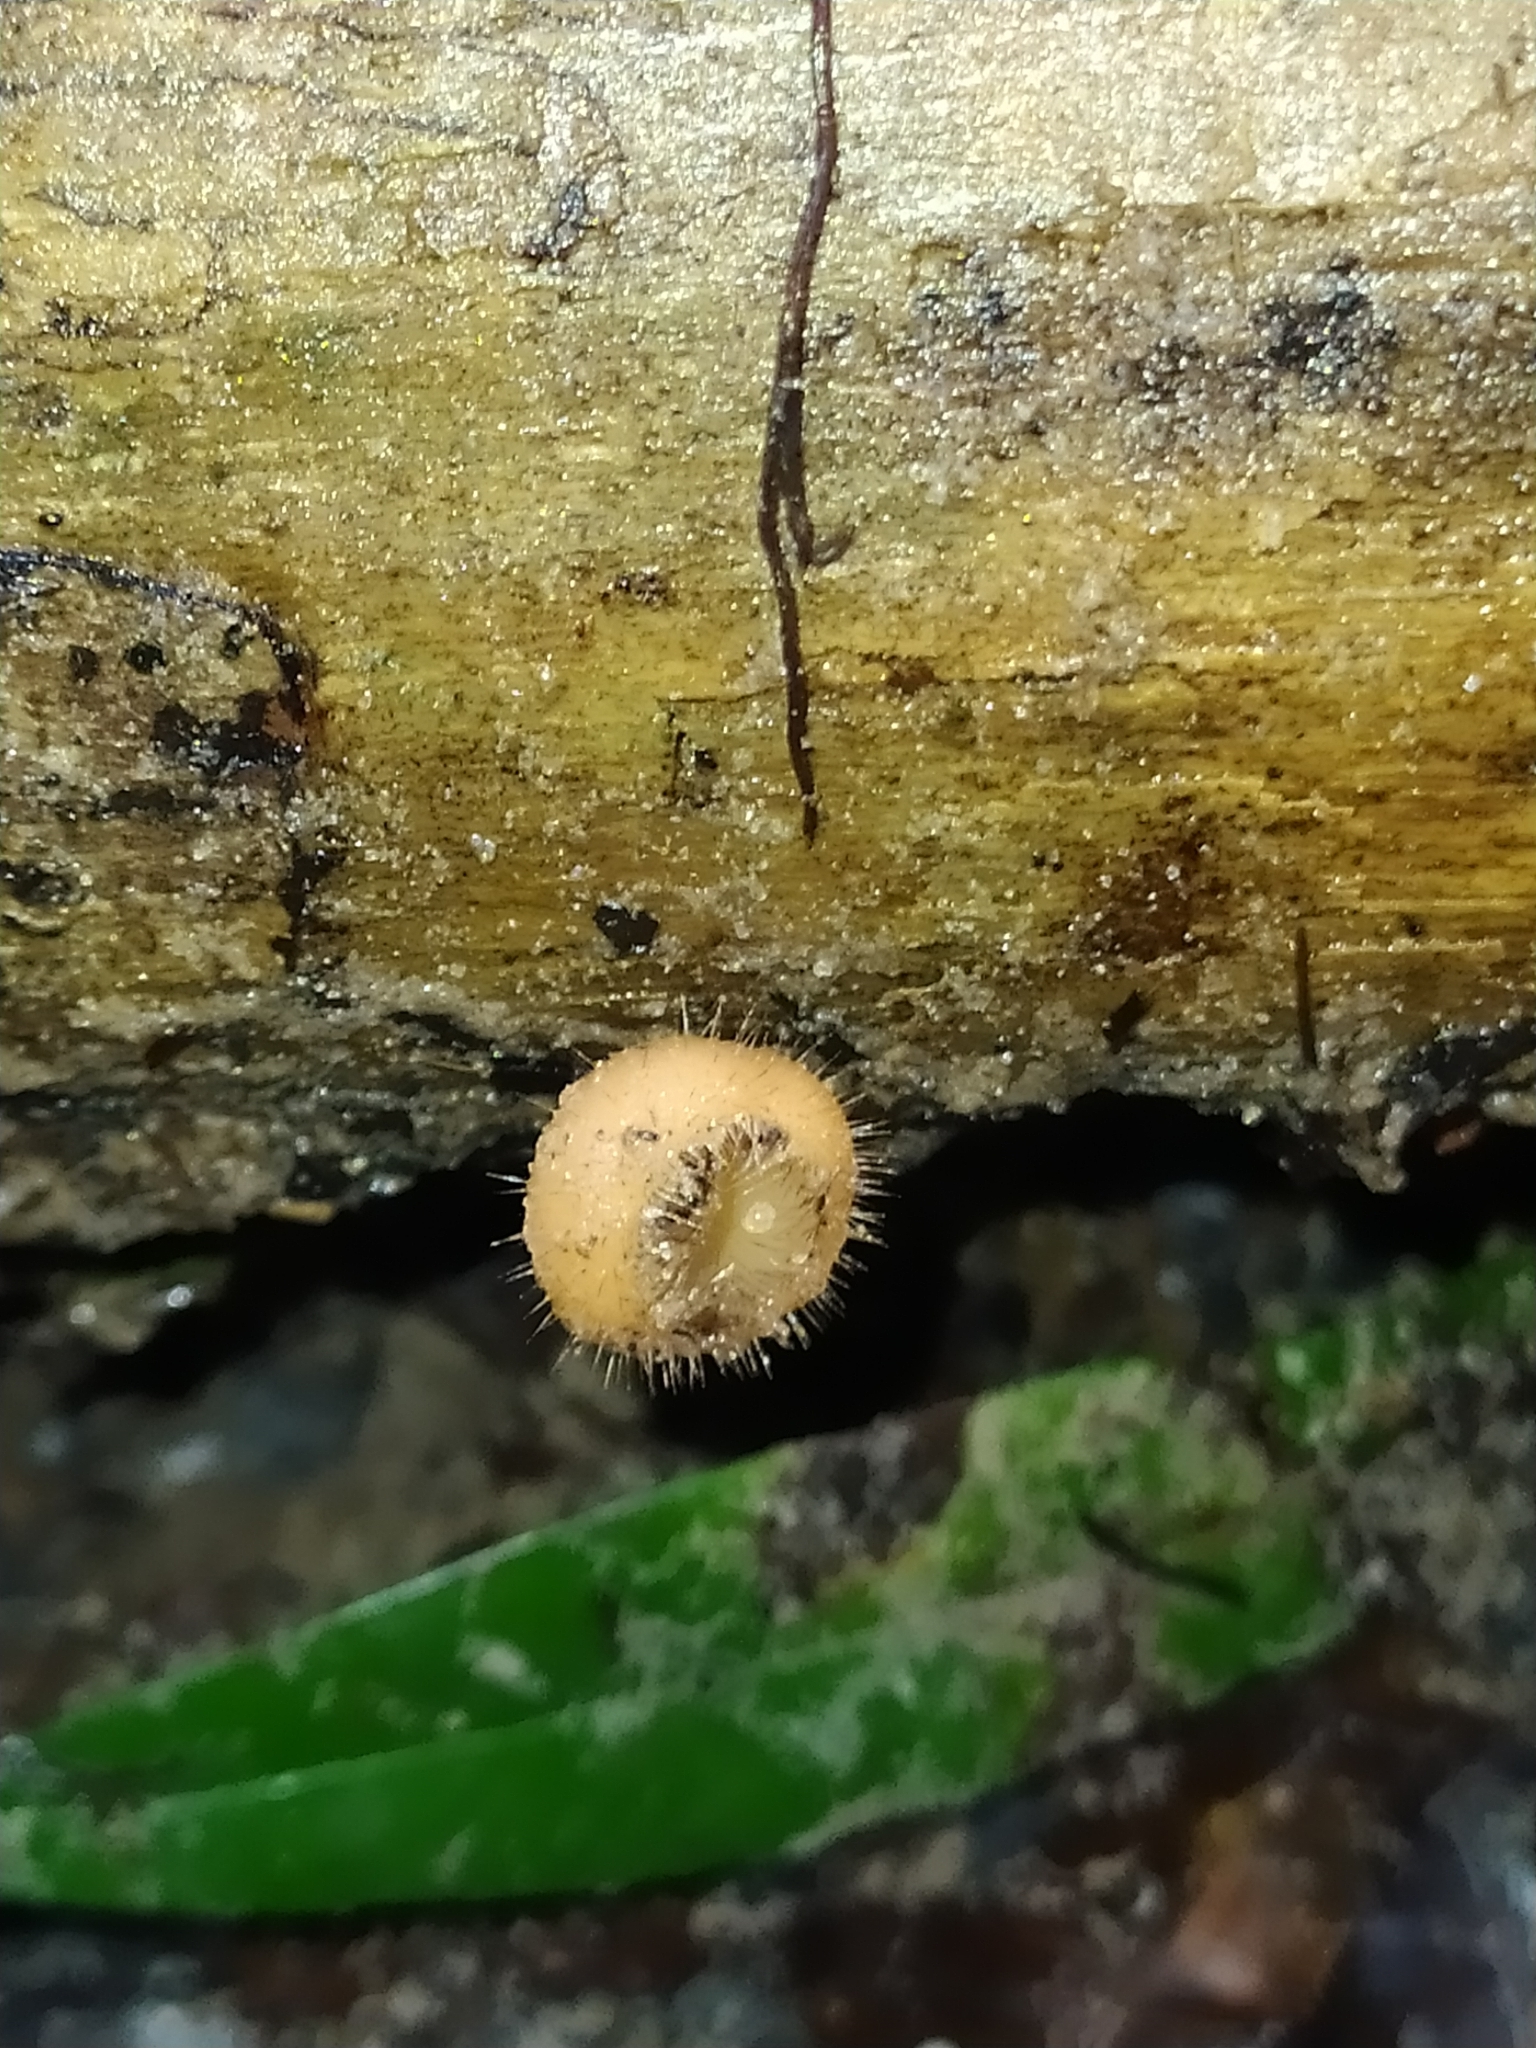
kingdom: Fungi
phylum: Ascomycota
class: Pezizomycetes
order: Pezizales
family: Sarcoscyphaceae
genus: Cookeina
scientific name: Cookeina tricholoma
